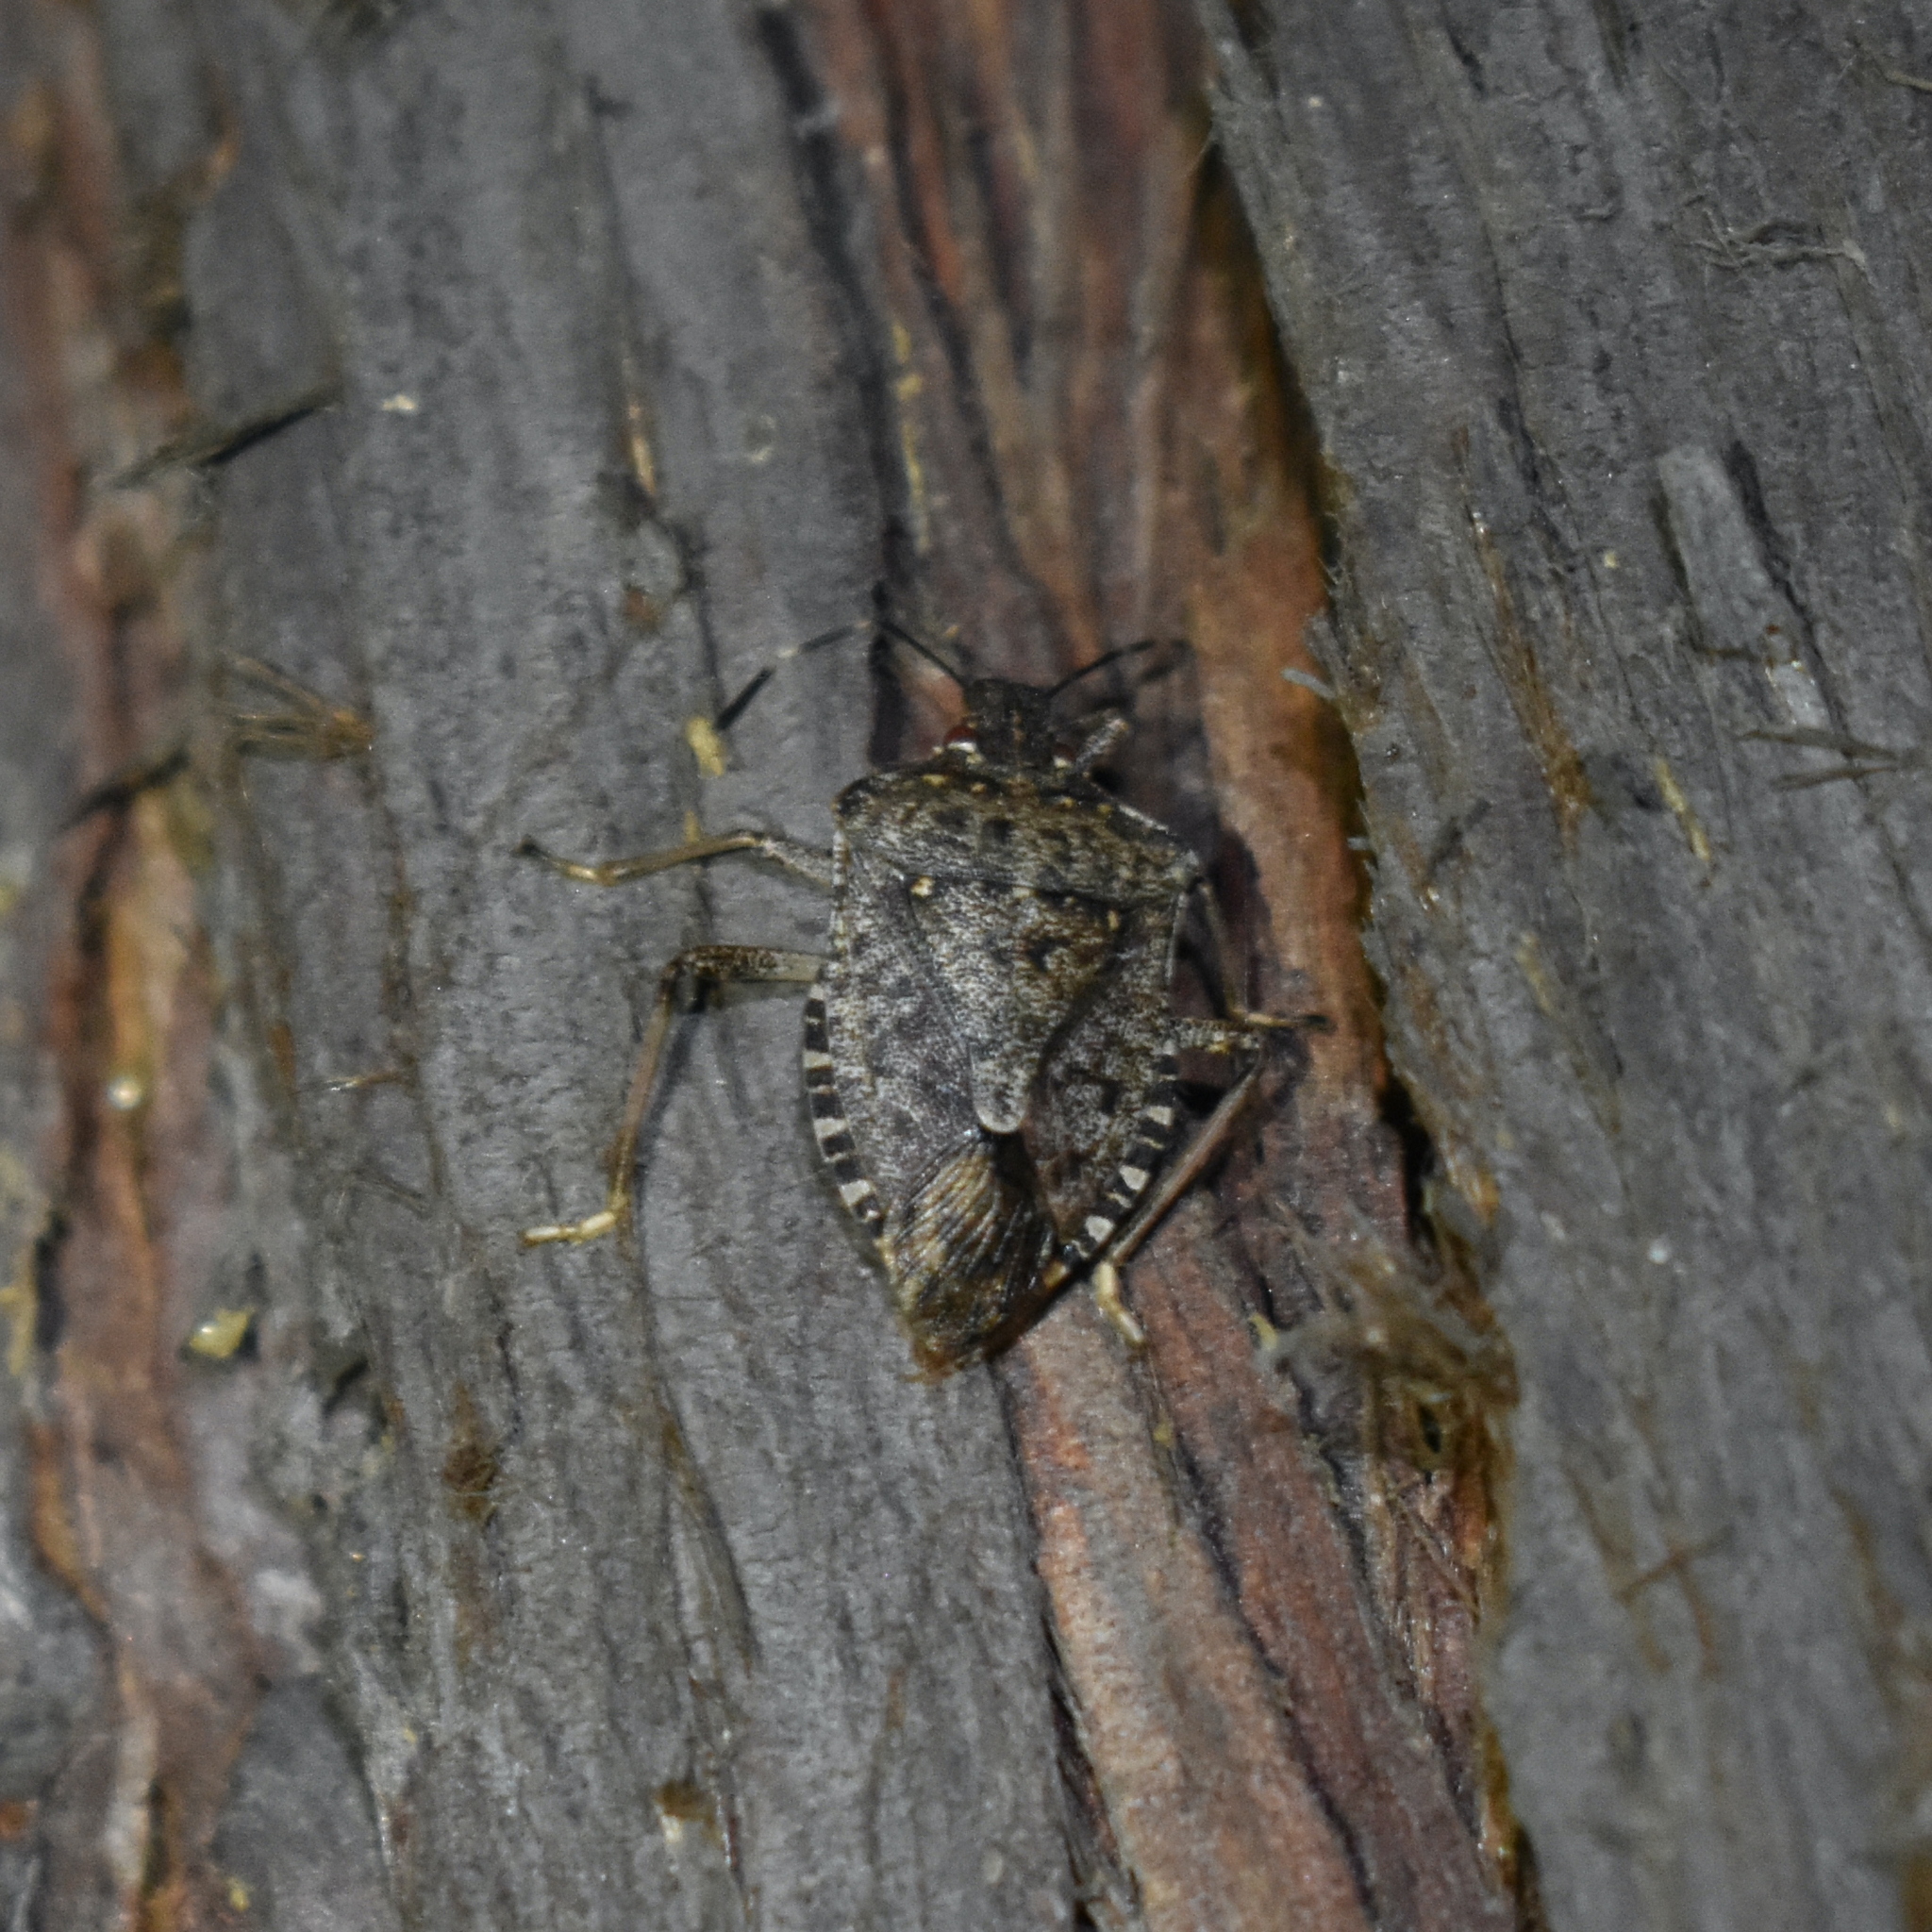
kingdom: Animalia
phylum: Arthropoda
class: Insecta
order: Hemiptera
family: Pentatomidae
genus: Halyomorpha
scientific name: Halyomorpha halys
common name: Brown marmorated stink bug
